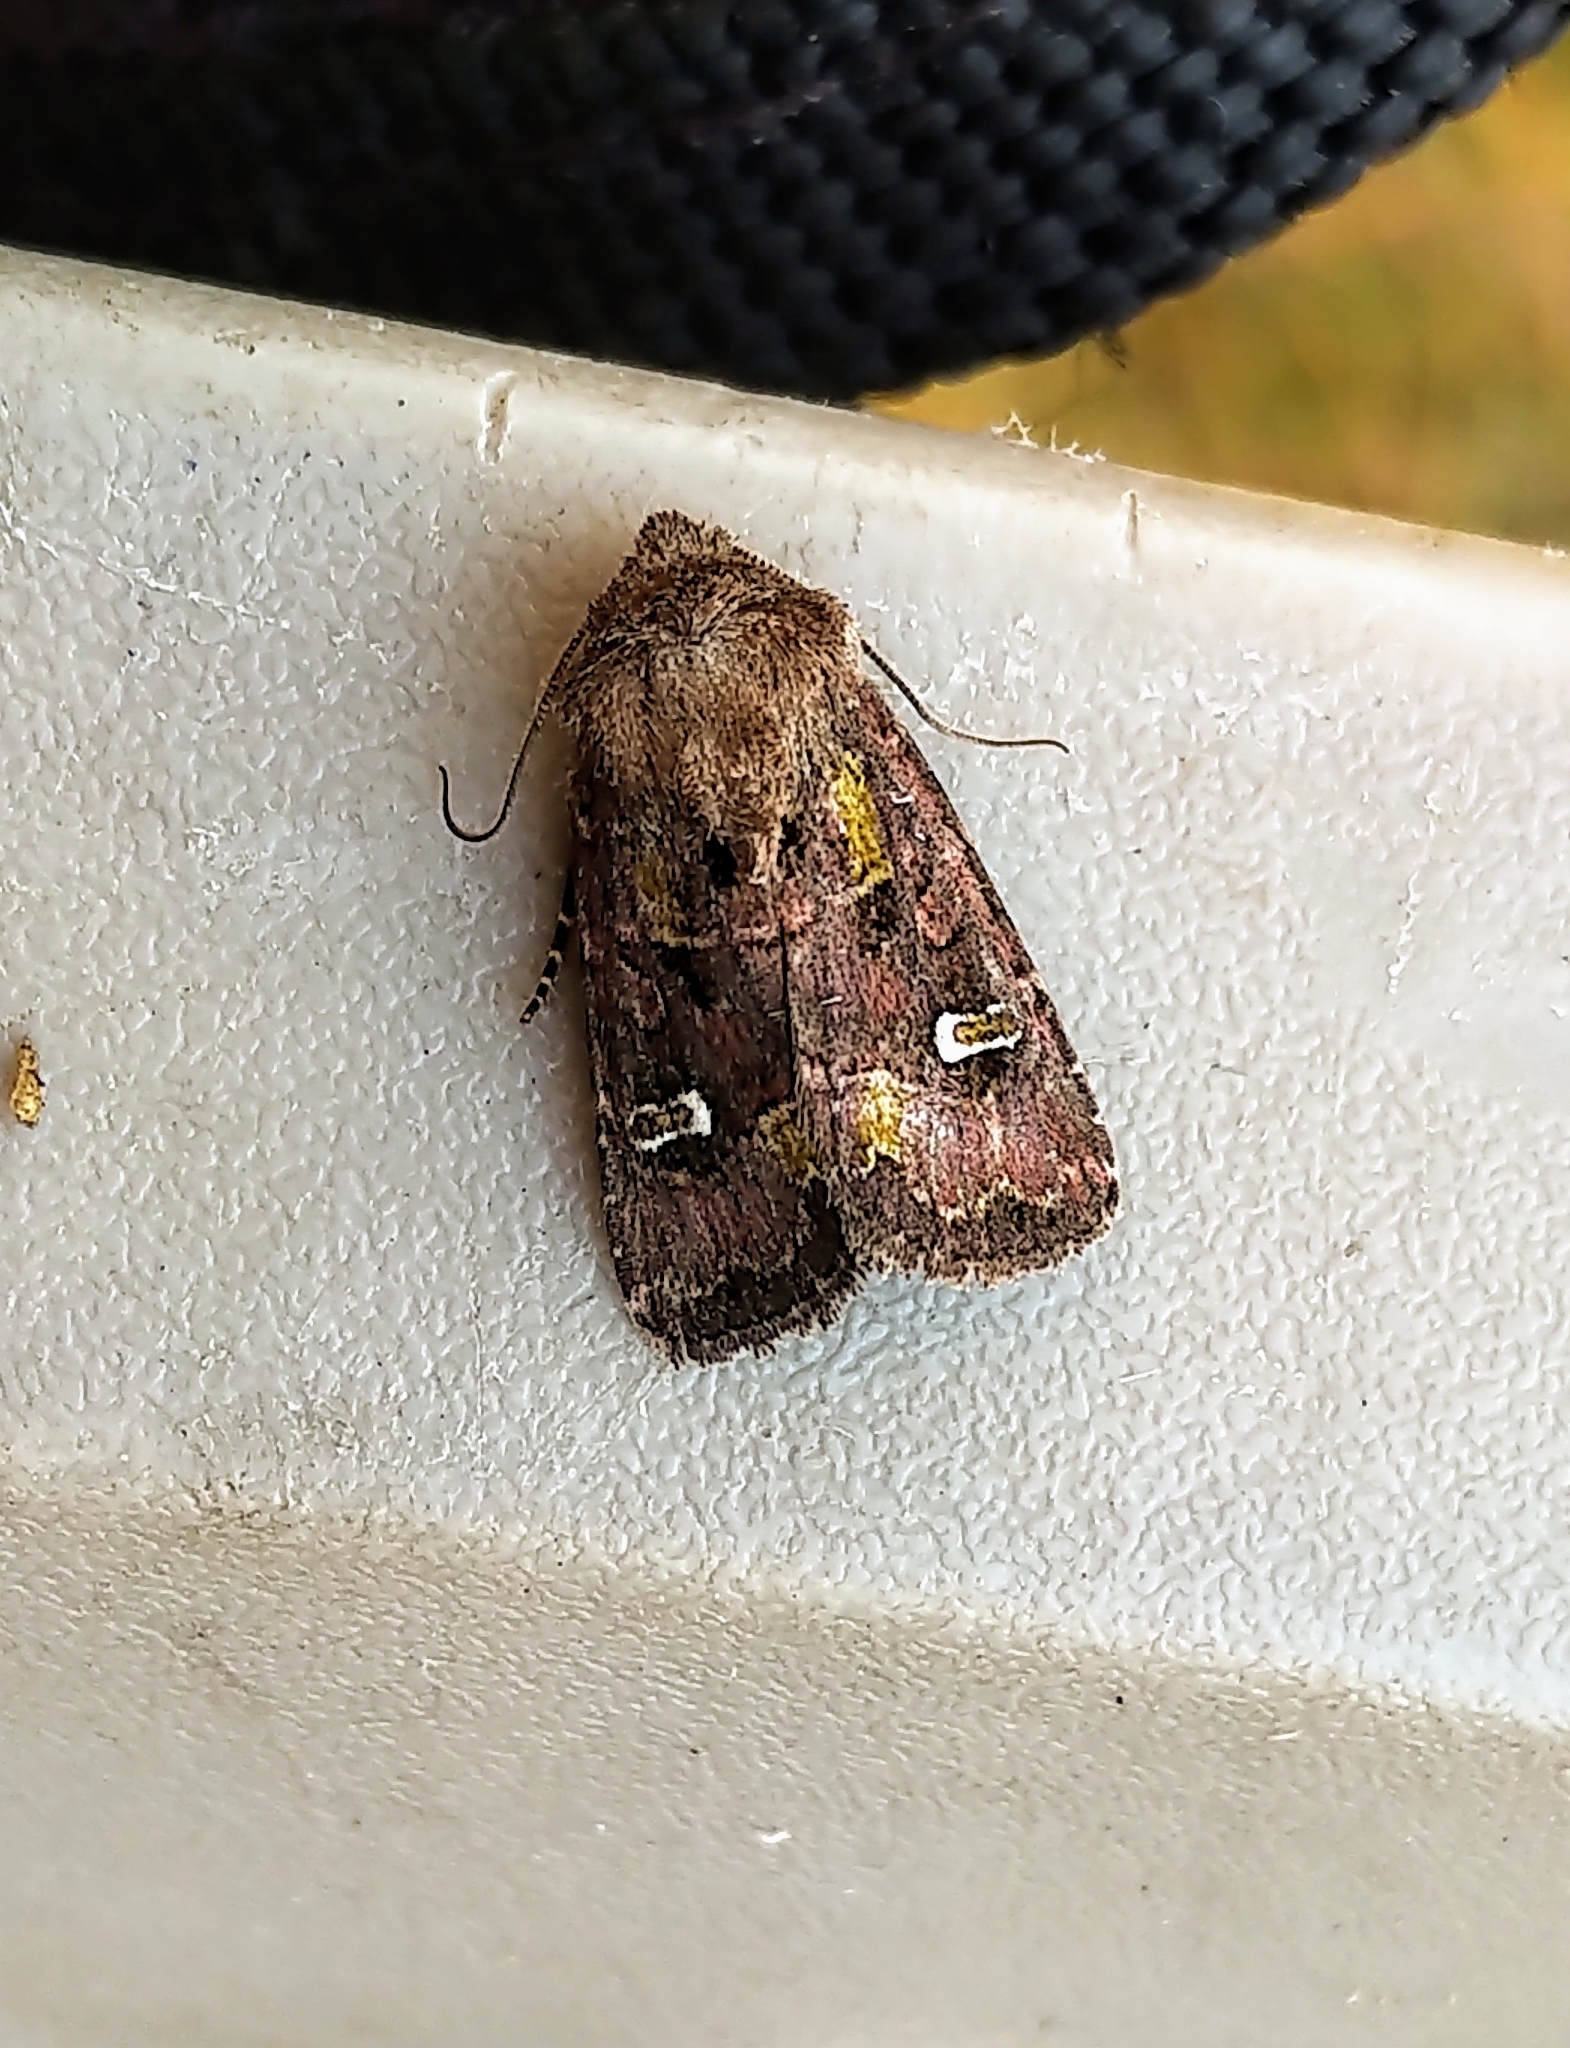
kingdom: Animalia
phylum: Arthropoda
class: Insecta
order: Lepidoptera
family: Noctuidae
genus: Lacinipolia
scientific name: Lacinipolia renigera
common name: Kidney-spotted minor
